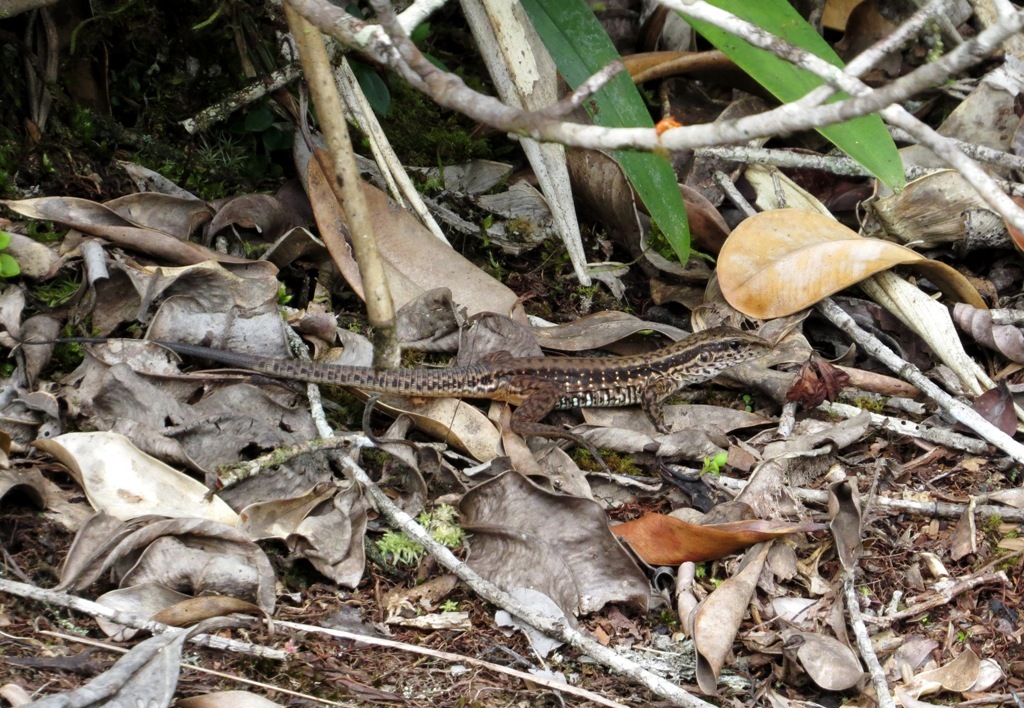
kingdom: Animalia
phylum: Chordata
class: Squamata
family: Teiidae
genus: Ameiva
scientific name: Ameiva ameiva
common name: Giant ameiva
